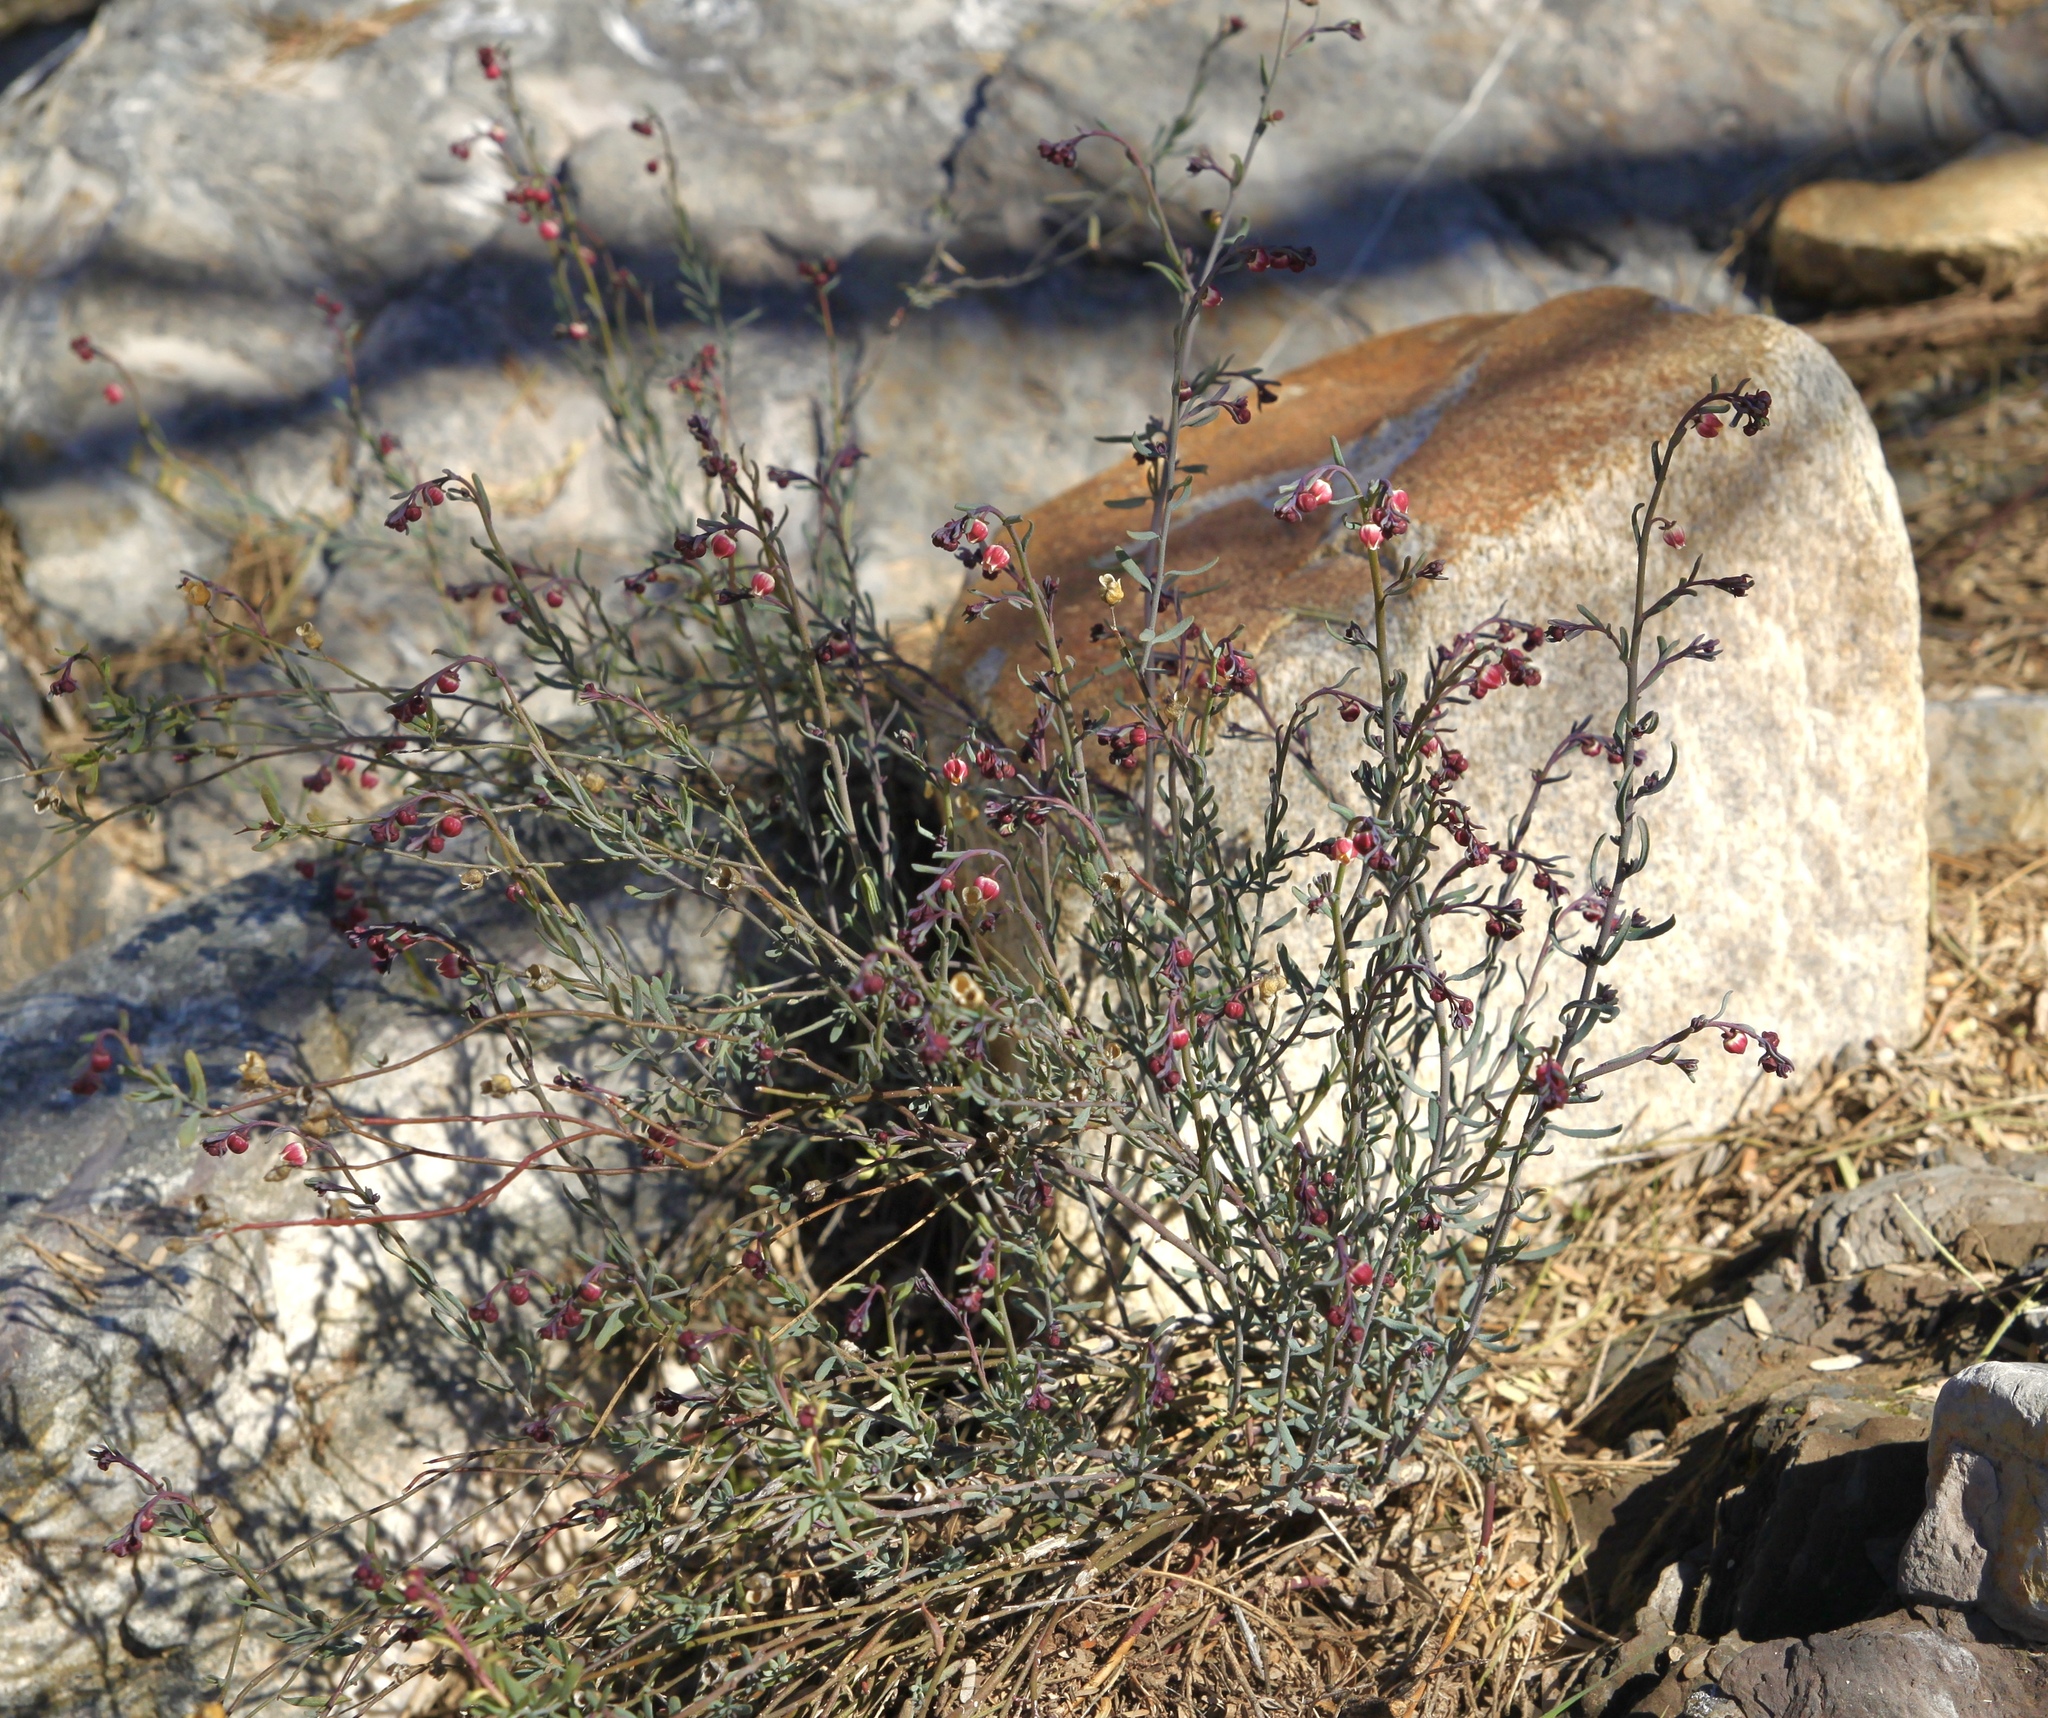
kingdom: Plantae
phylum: Tracheophyta
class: Magnoliopsida
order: Sapindales
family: Rutaceae
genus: Thamnosma
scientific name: Thamnosma texana
